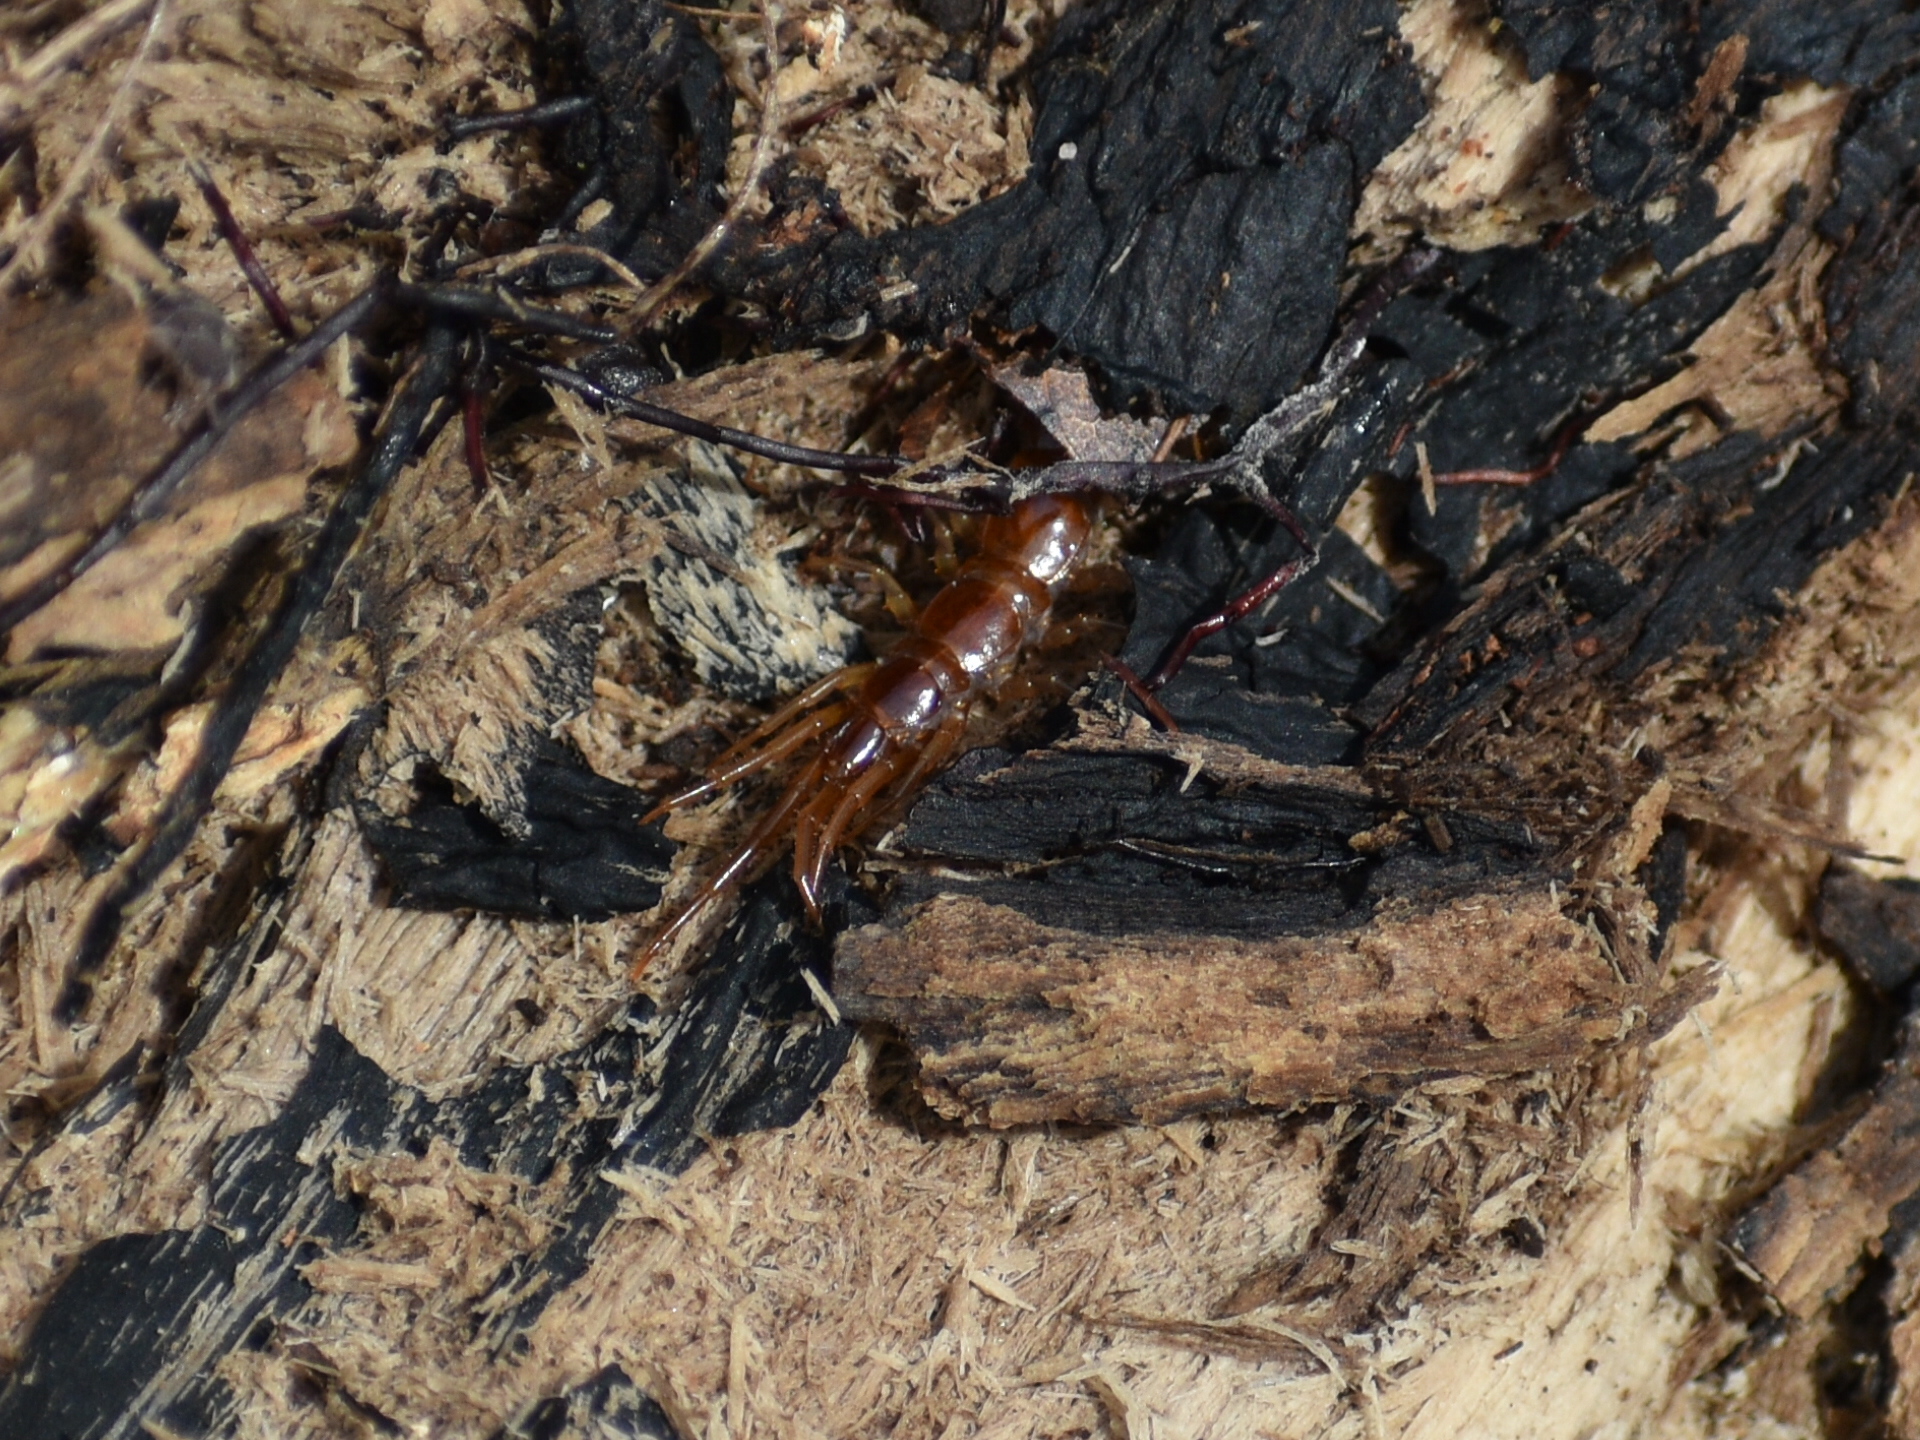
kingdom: Animalia
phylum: Arthropoda
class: Chilopoda
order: Lithobiomorpha
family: Lithobiidae
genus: Lithobius
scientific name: Lithobius forficatus
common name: Centipede
